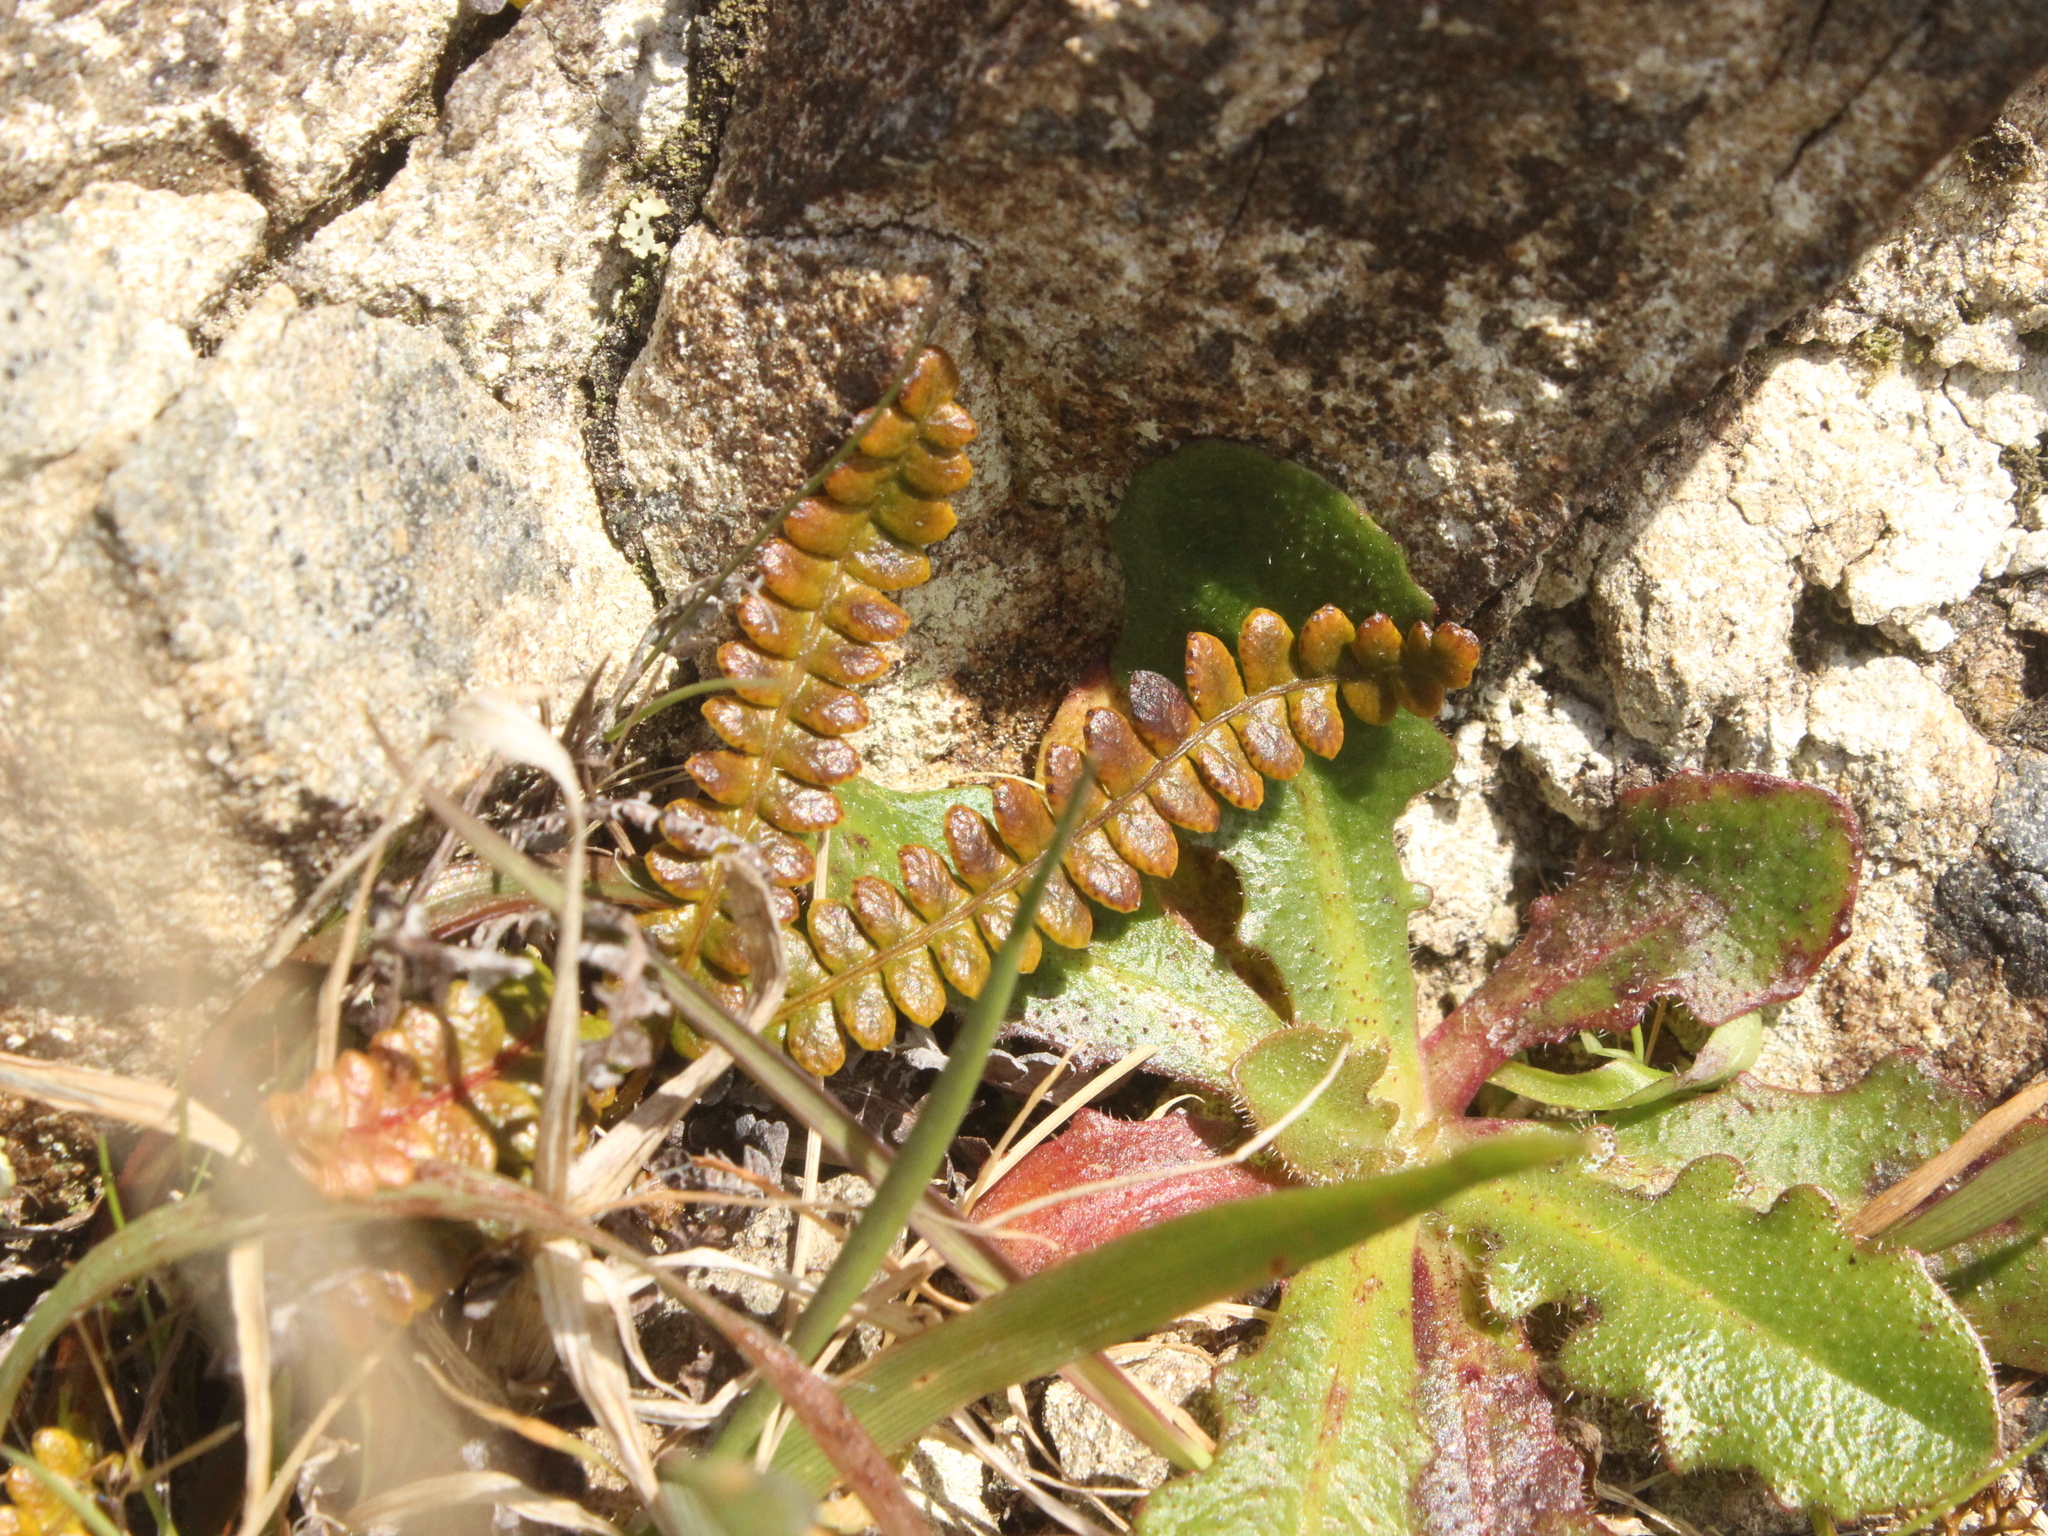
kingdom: Plantae
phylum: Tracheophyta
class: Polypodiopsida
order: Polypodiales
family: Blechnaceae
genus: Austroblechnum
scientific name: Austroblechnum penna-marina
